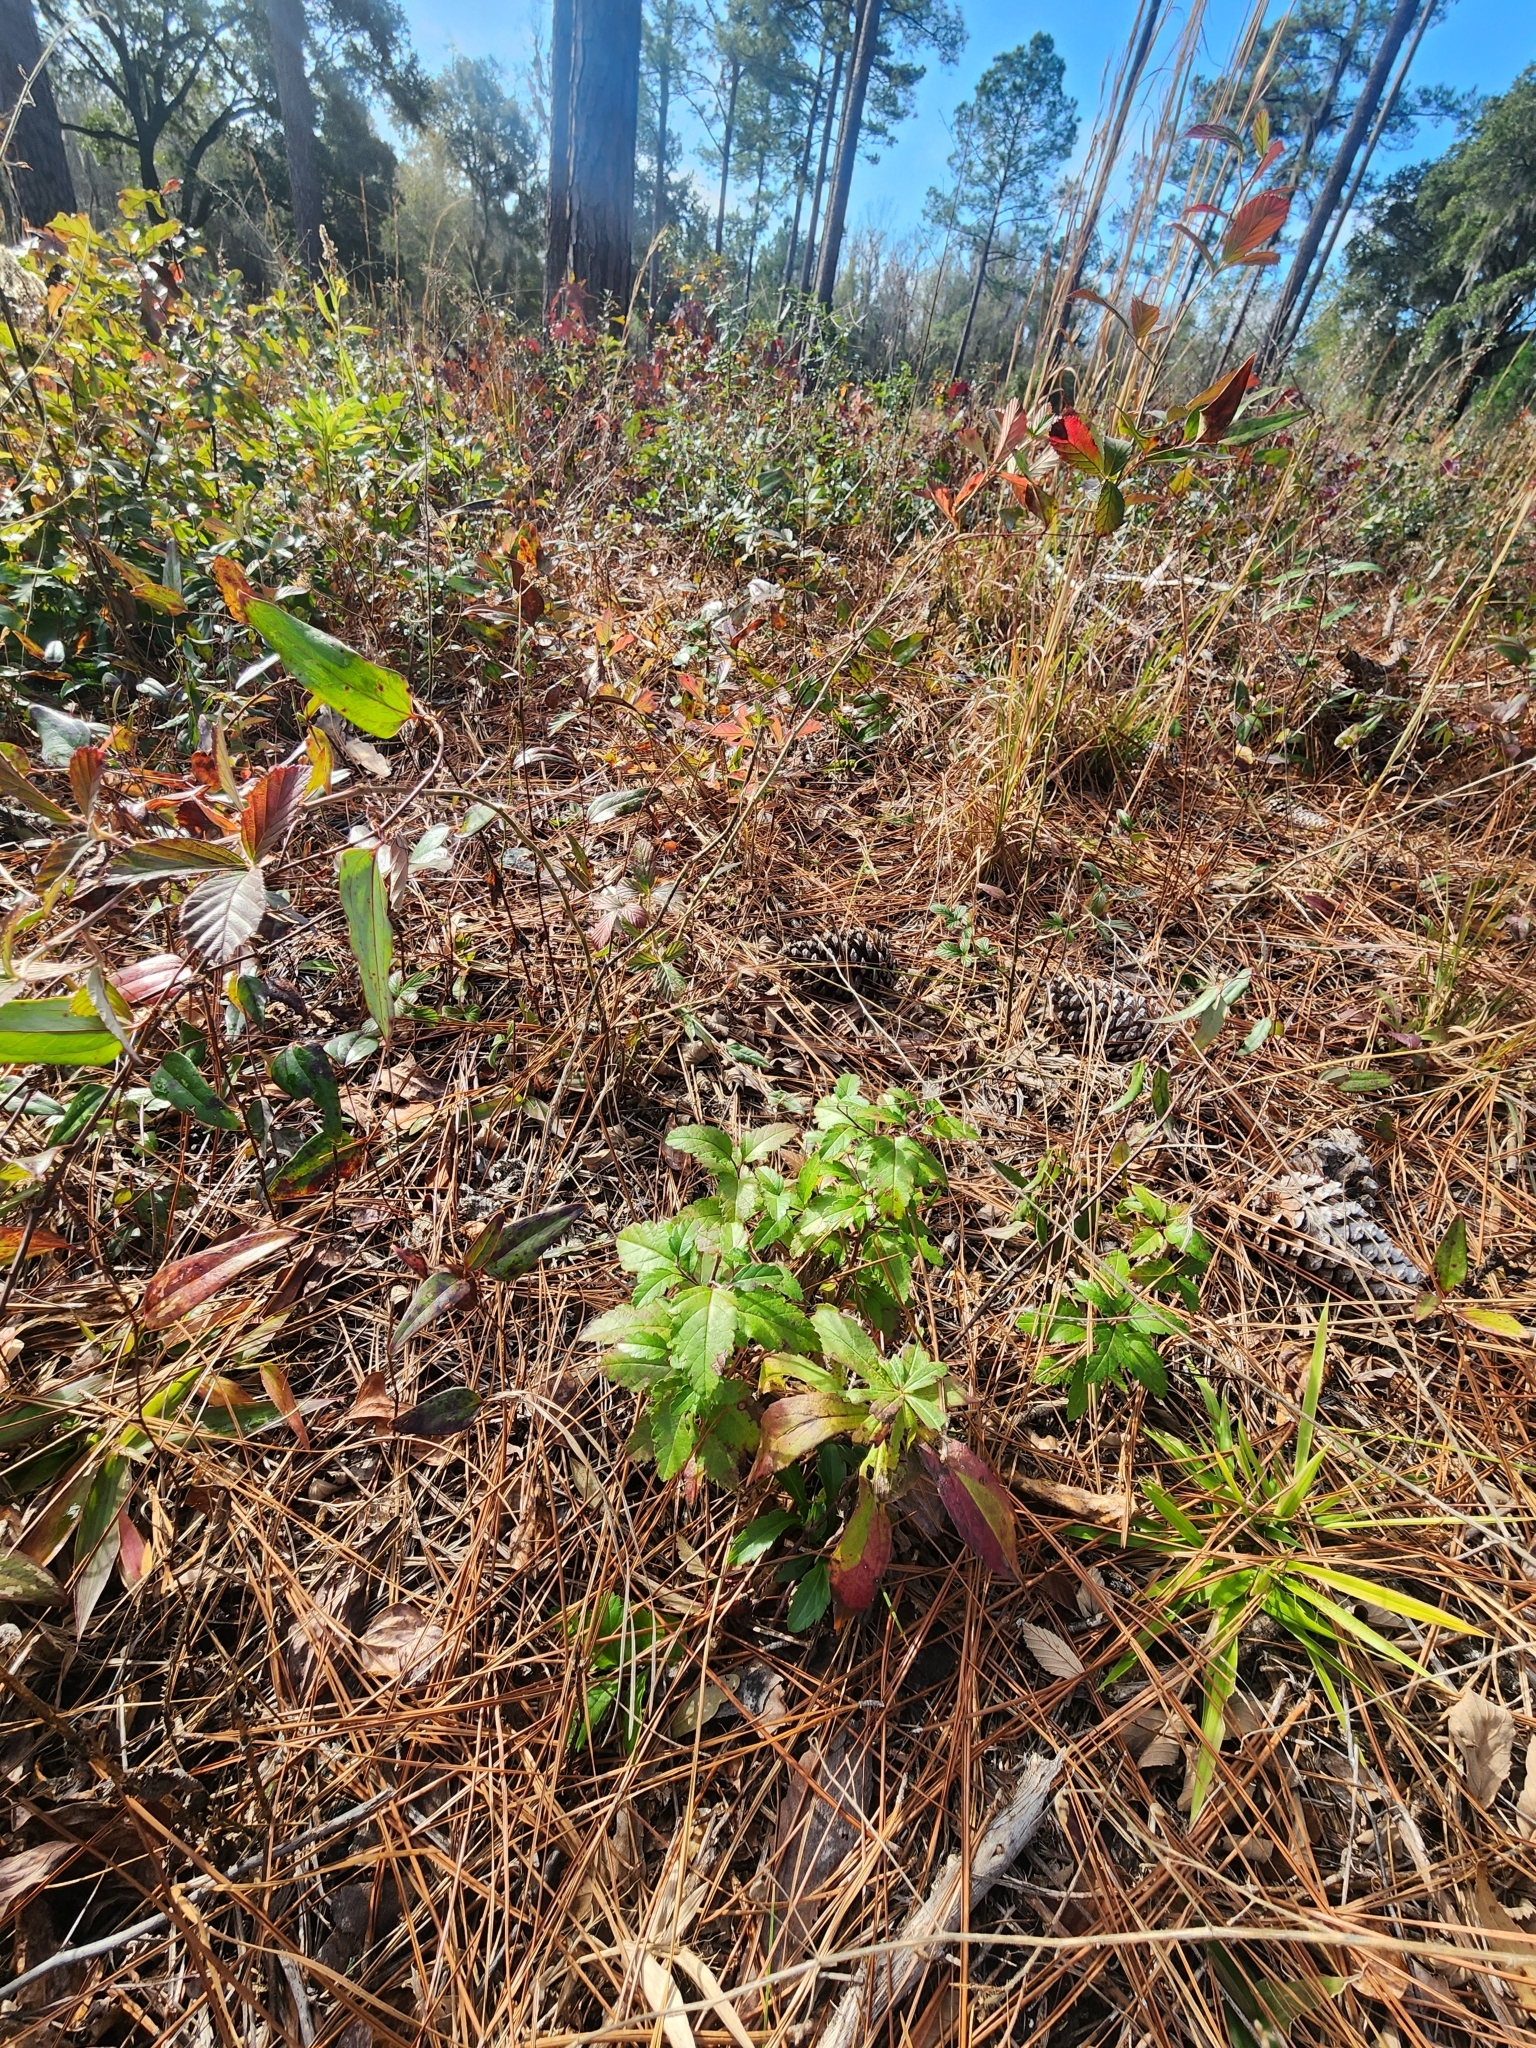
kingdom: Plantae
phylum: Tracheophyta
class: Magnoliopsida
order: Rosales
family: Rosaceae
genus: Malus
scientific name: Malus angustifolia
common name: Southern crab apple
